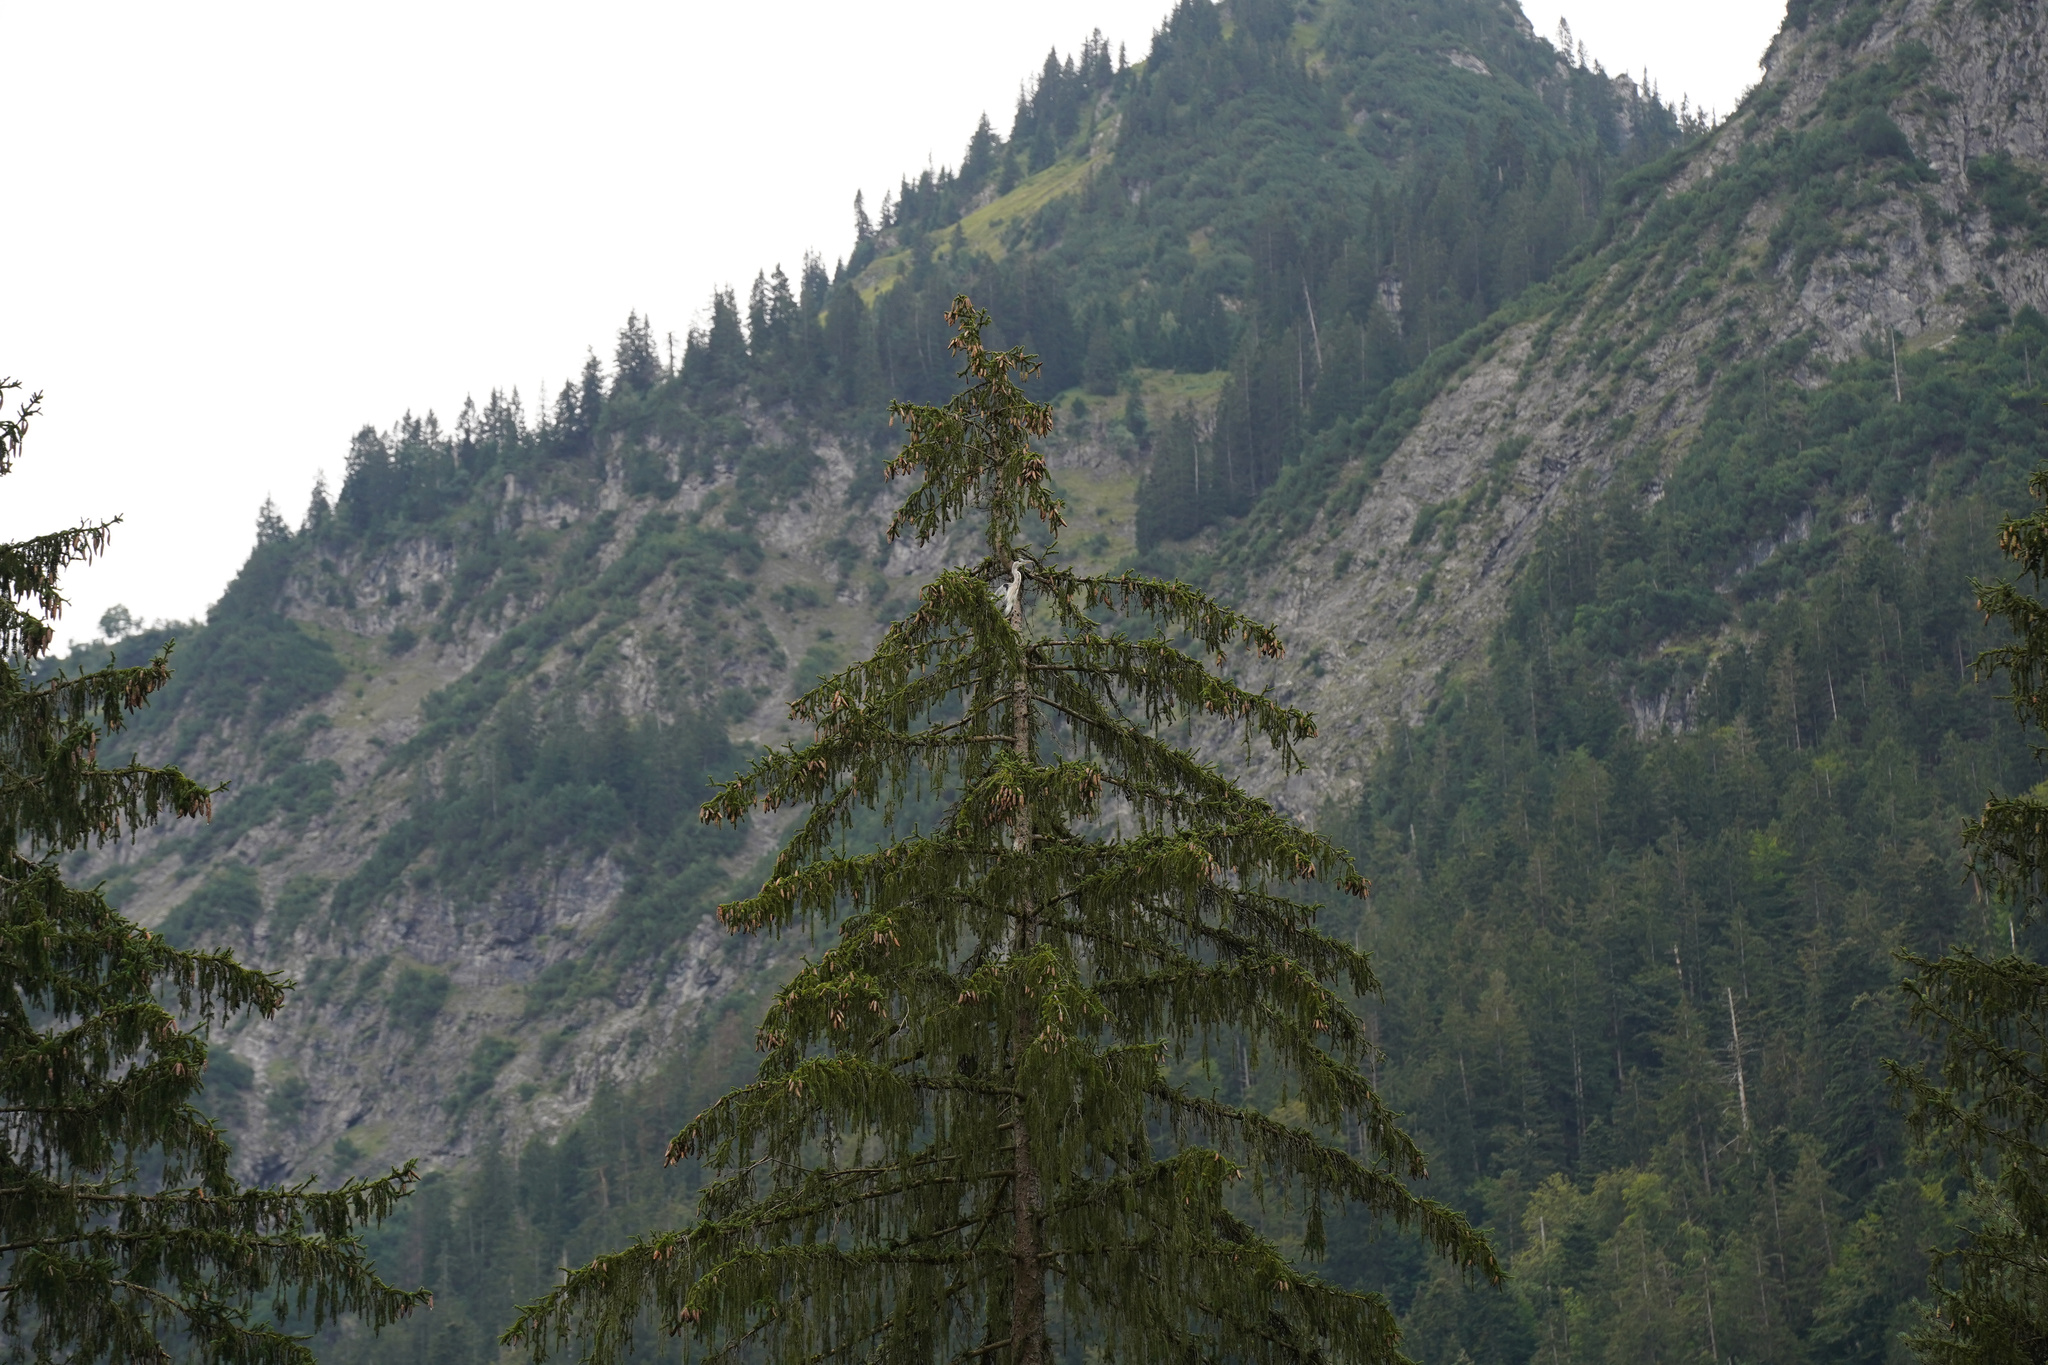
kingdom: Animalia
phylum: Chordata
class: Aves
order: Pelecaniformes
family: Ardeidae
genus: Ardea
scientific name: Ardea cinerea
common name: Grey heron
